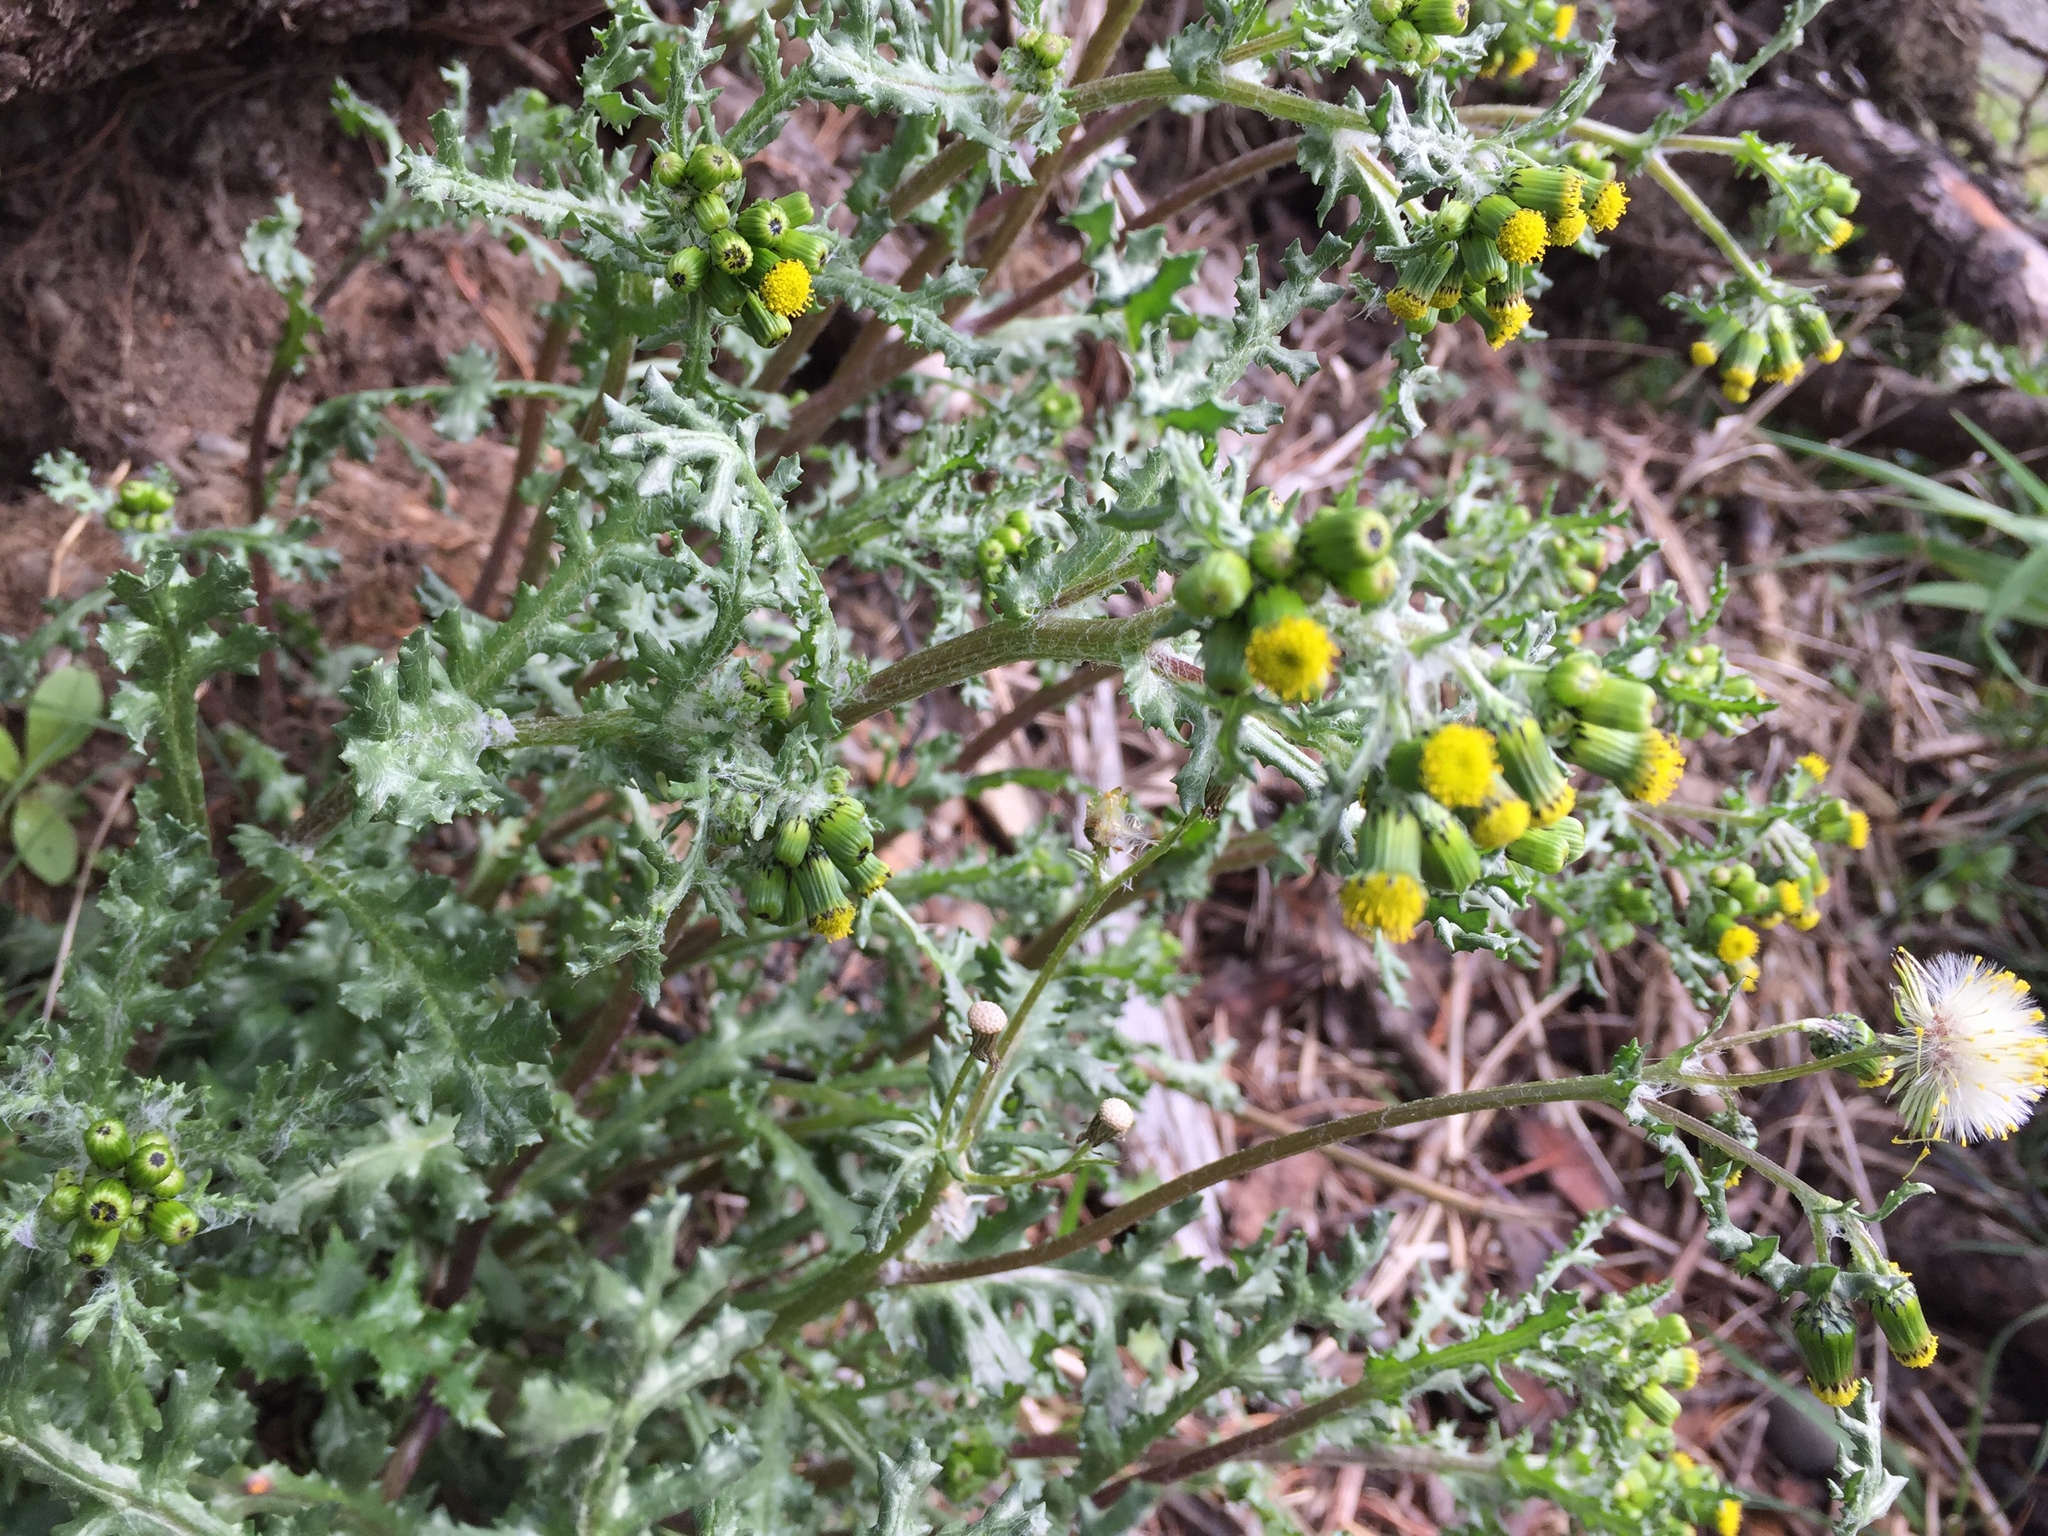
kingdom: Plantae
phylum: Tracheophyta
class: Magnoliopsida
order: Asterales
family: Asteraceae
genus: Senecio
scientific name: Senecio vulgaris
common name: Old-man-in-the-spring
